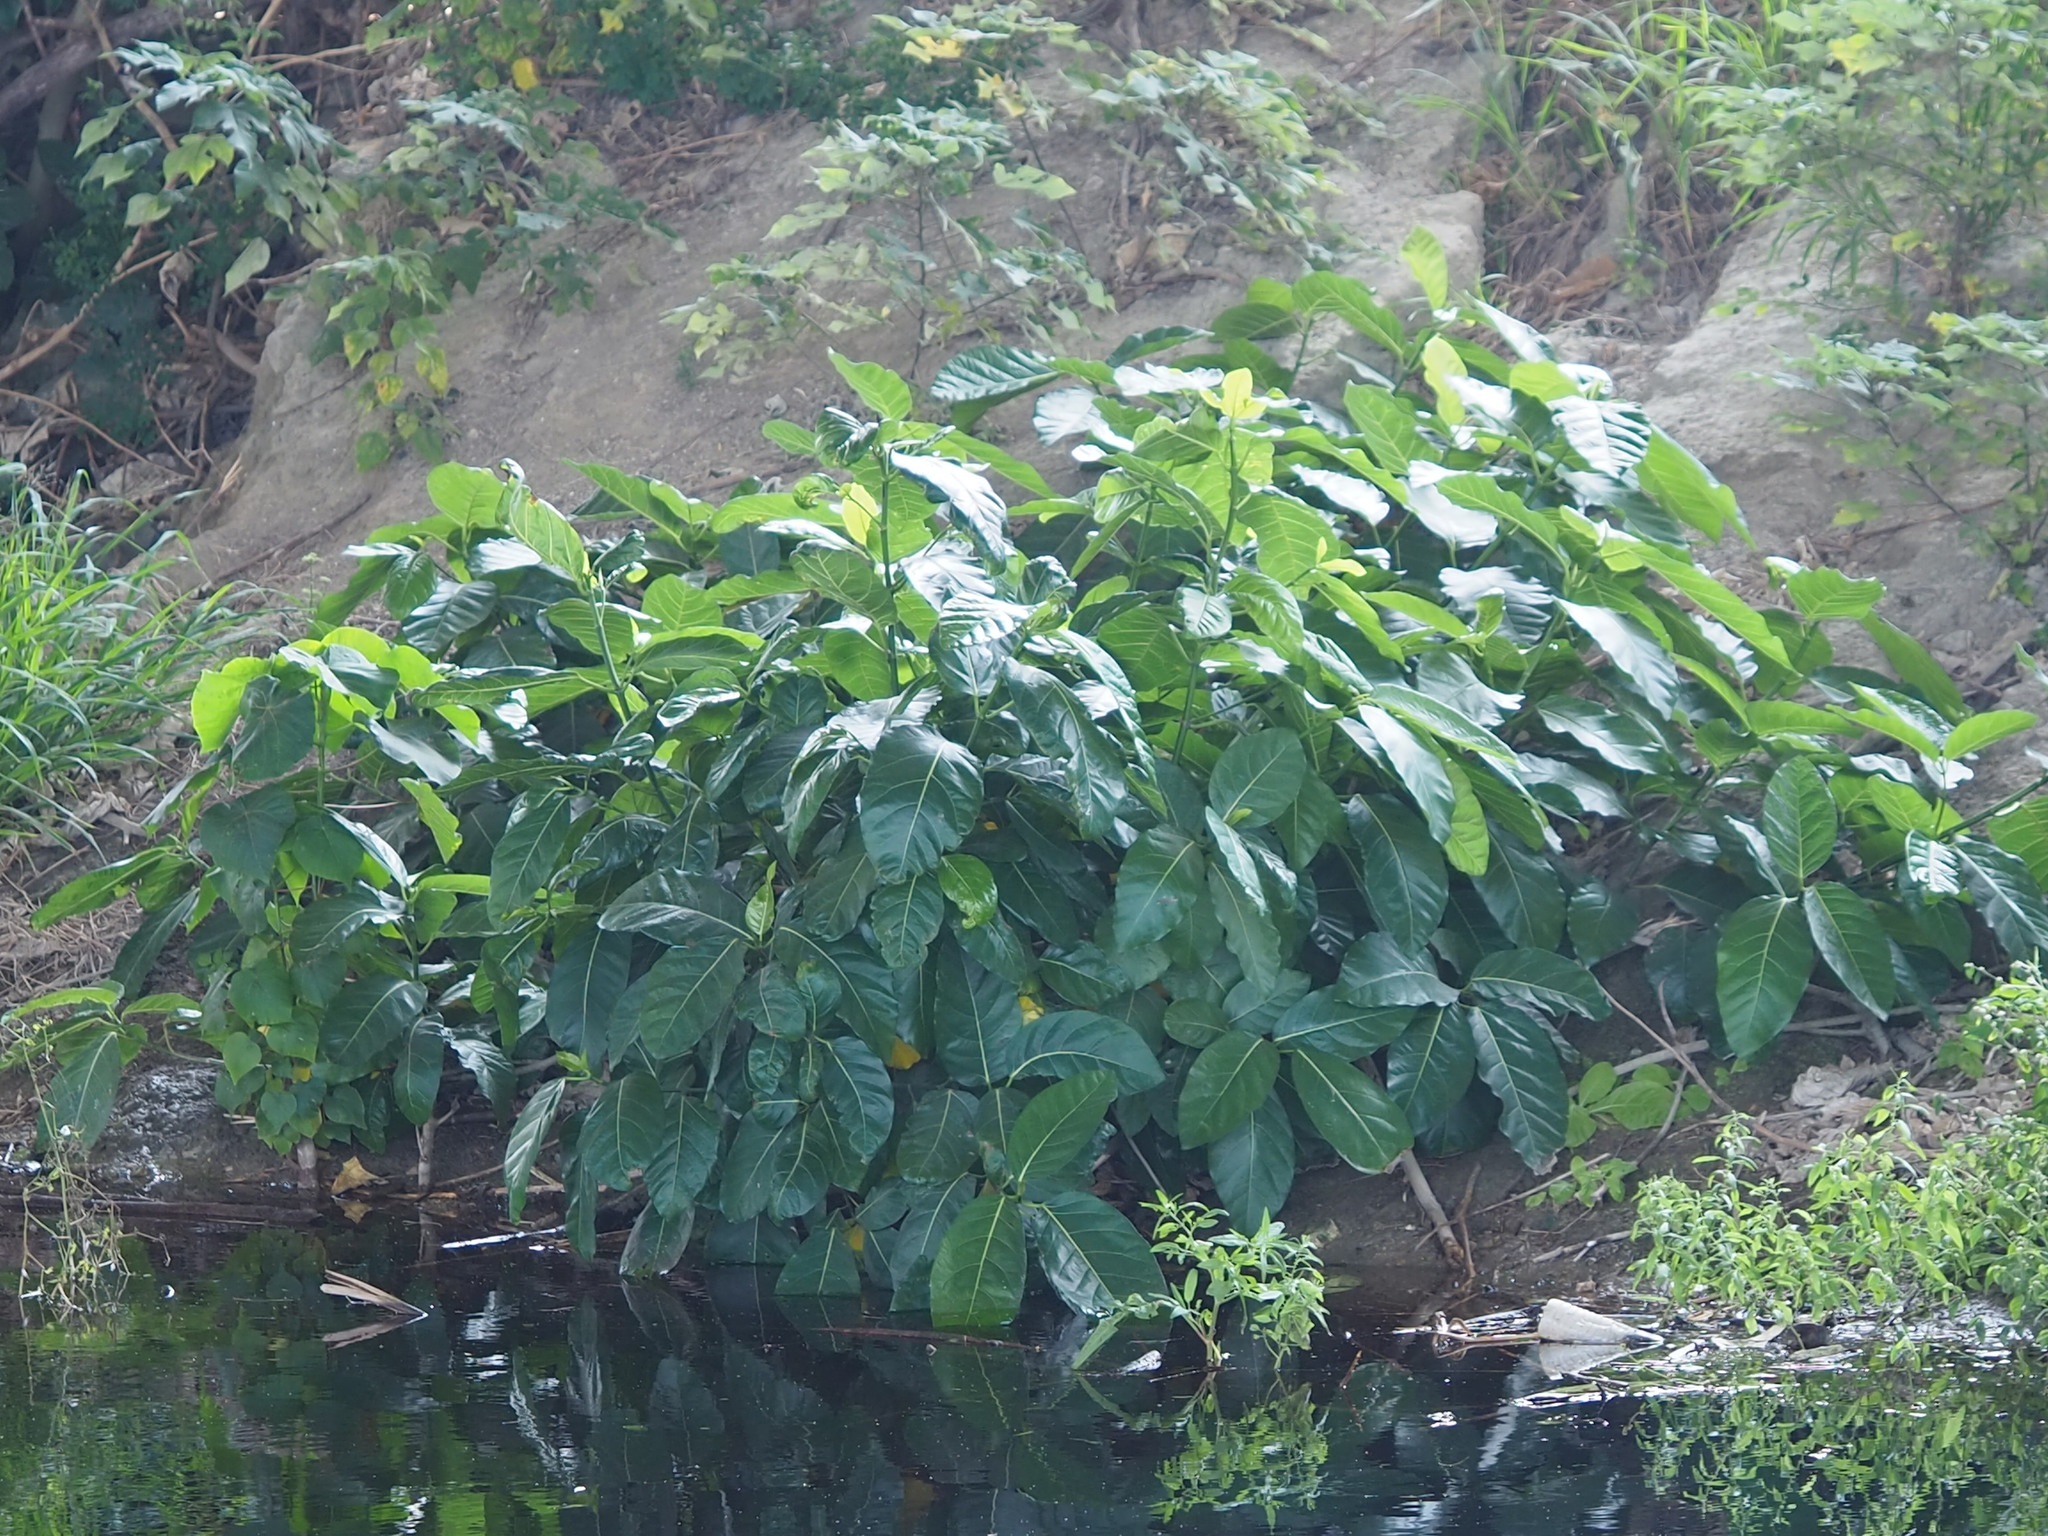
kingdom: Plantae
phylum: Tracheophyta
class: Magnoliopsida
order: Rosales
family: Moraceae
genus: Ficus
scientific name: Ficus septica
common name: Septic fig
